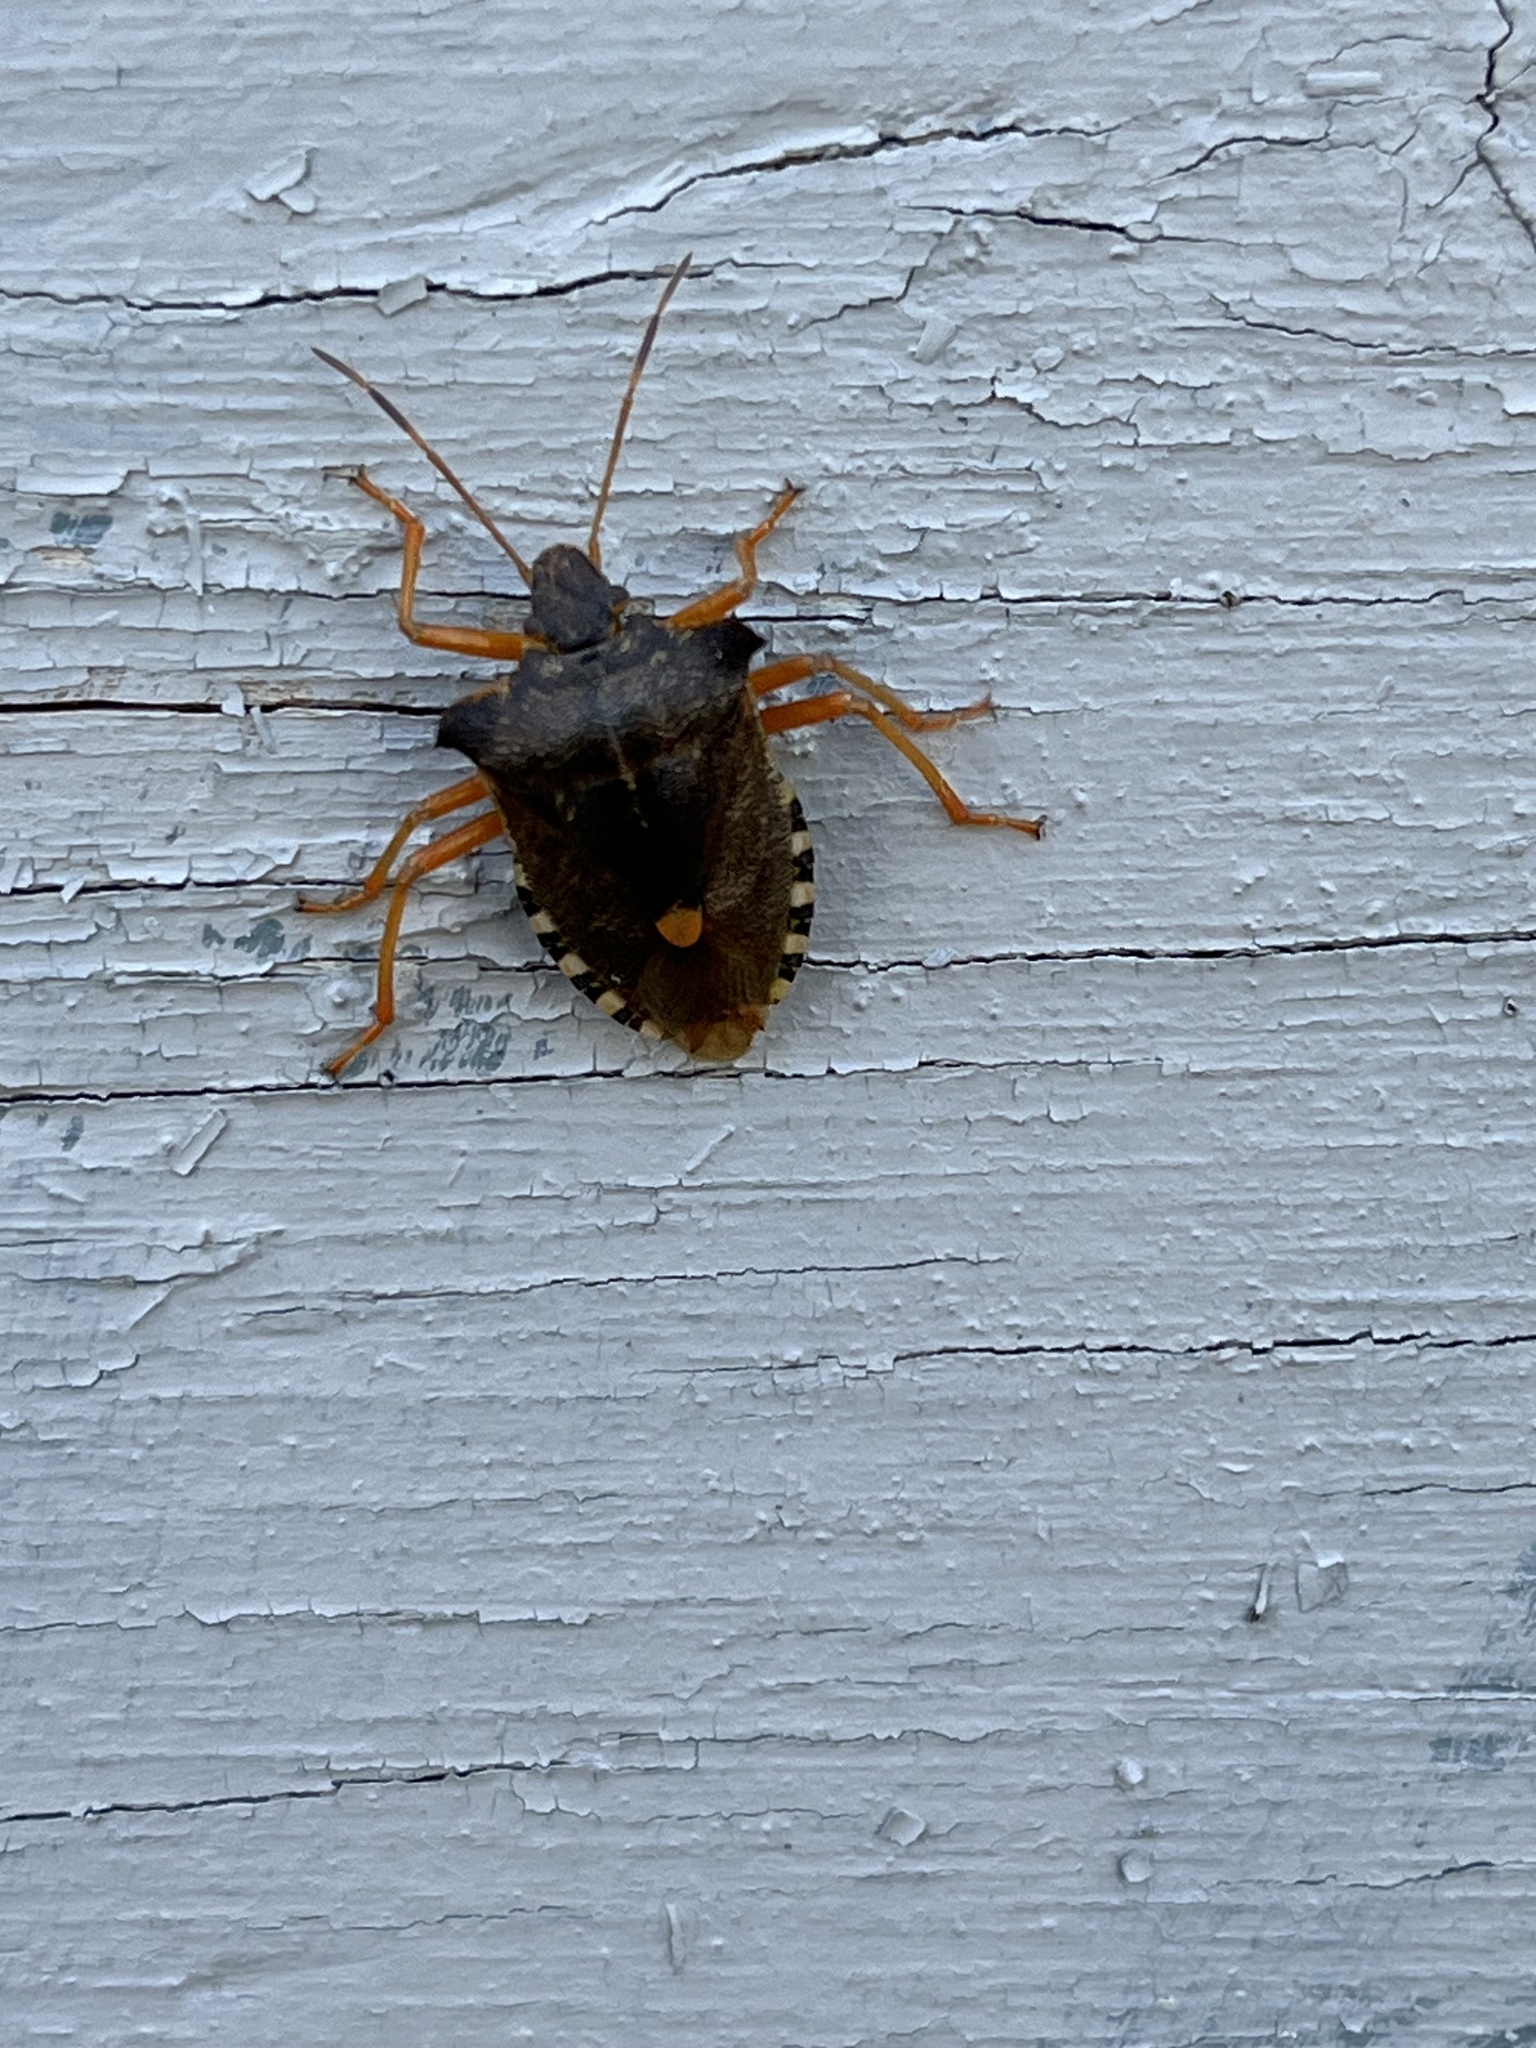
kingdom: Animalia
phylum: Arthropoda
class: Insecta
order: Hemiptera
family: Pentatomidae
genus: Pentatoma
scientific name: Pentatoma rufipes
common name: Forest bug
